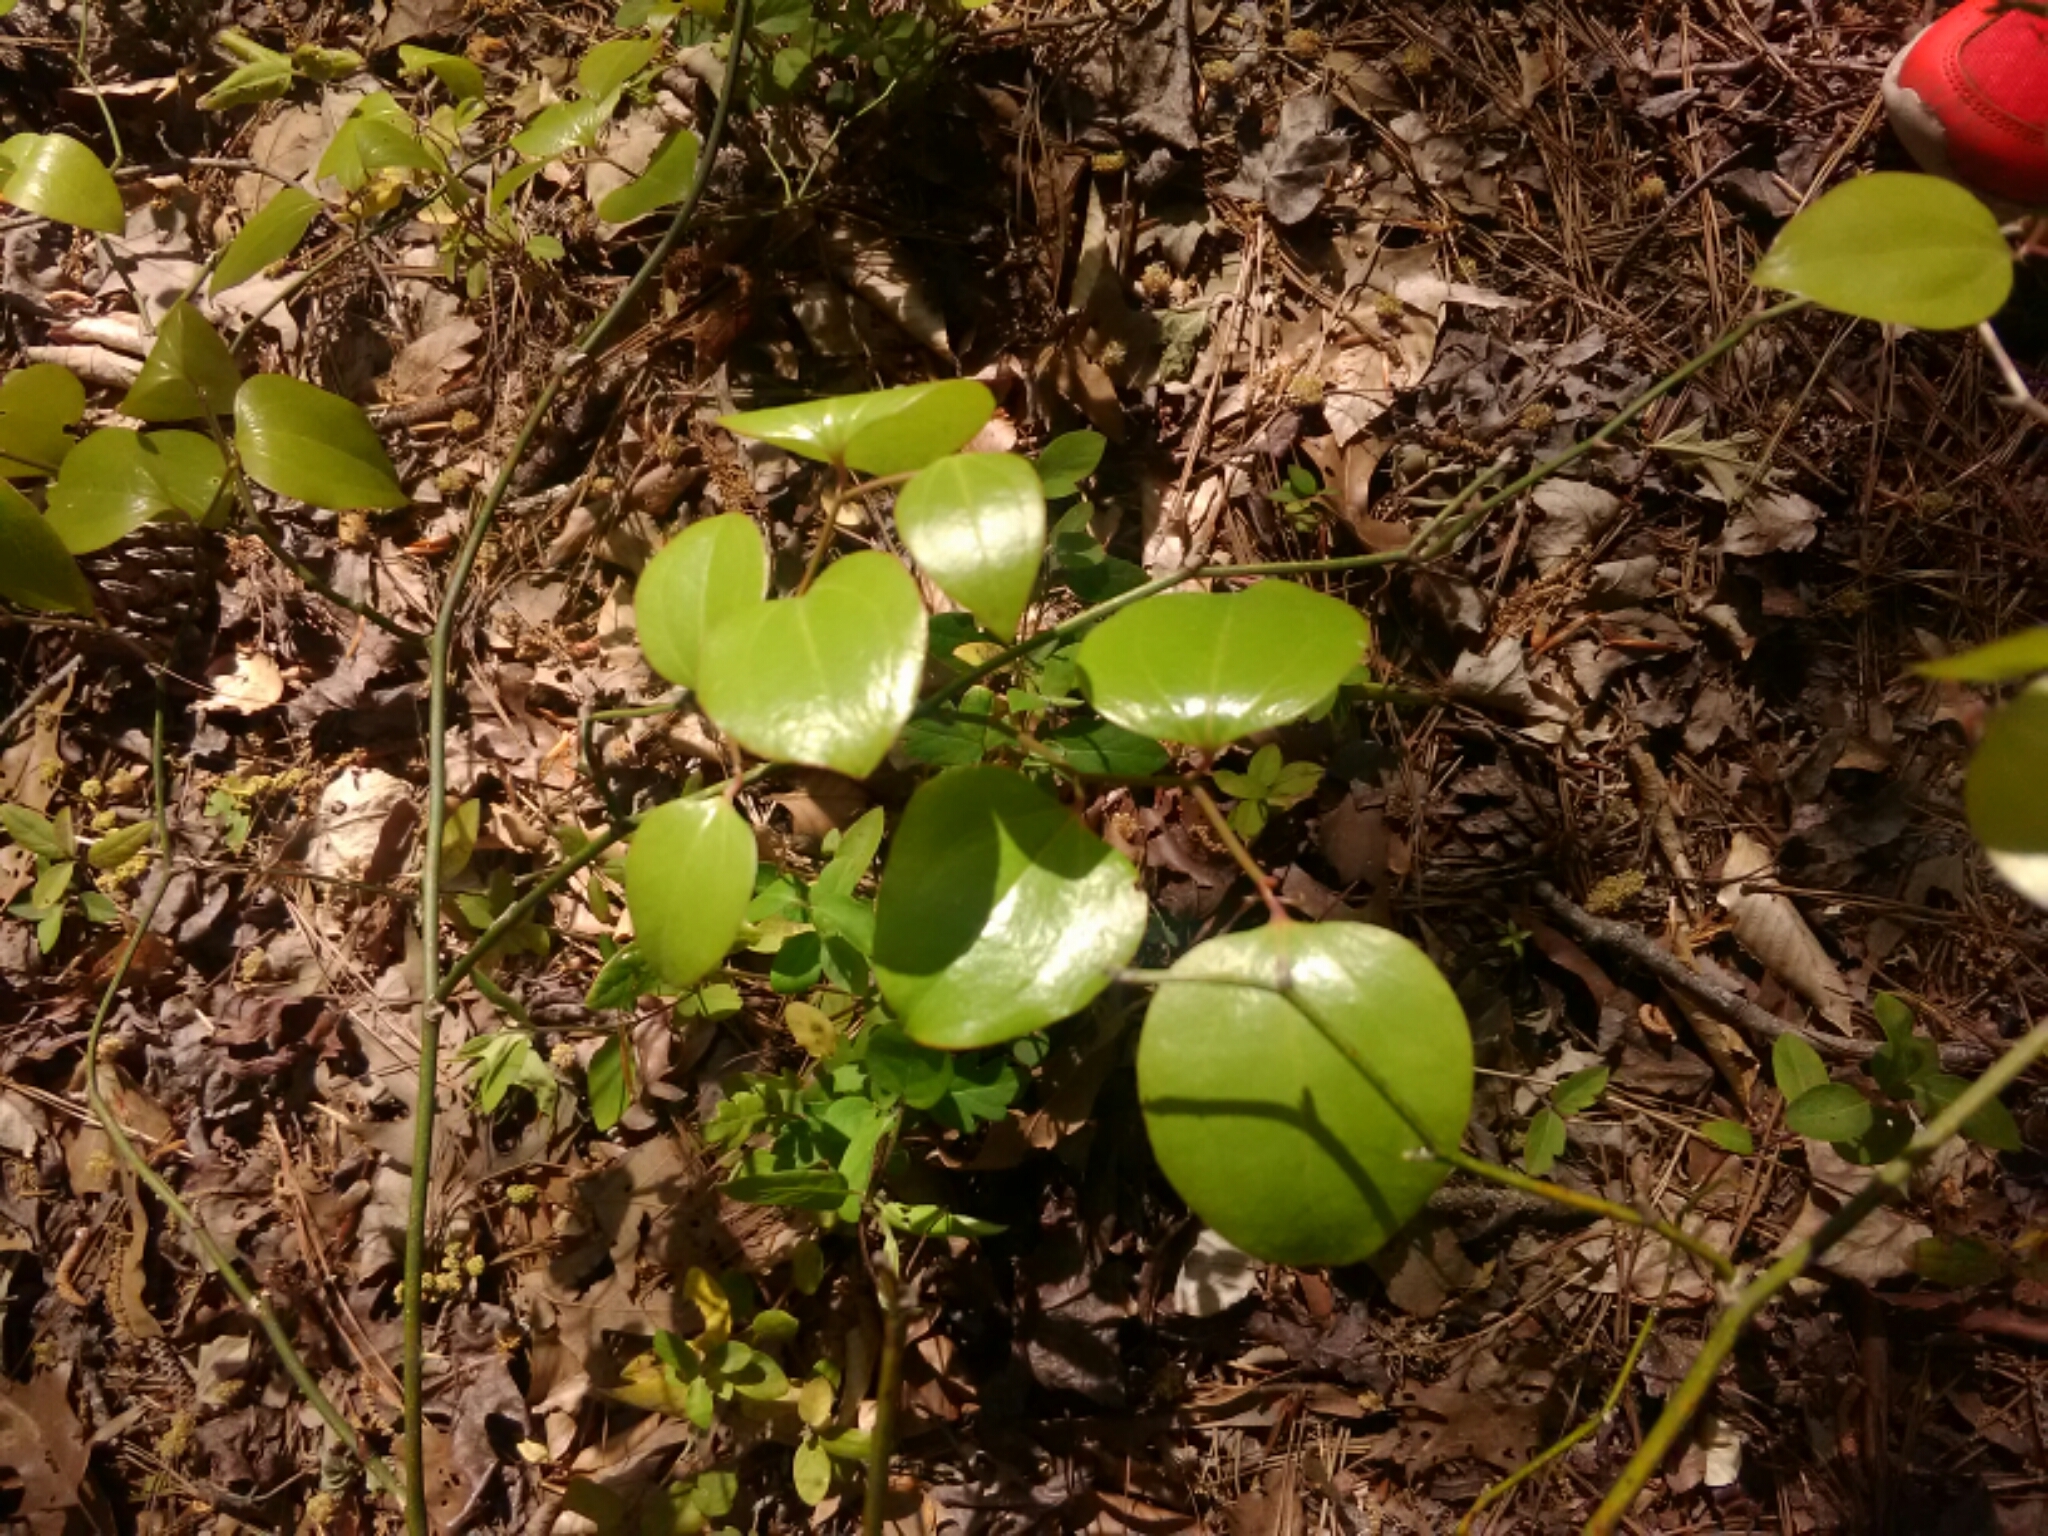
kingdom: Plantae
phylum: Tracheophyta
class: Liliopsida
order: Liliales
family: Smilacaceae
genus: Smilax
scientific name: Smilax rotundifolia
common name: Bullbriar
